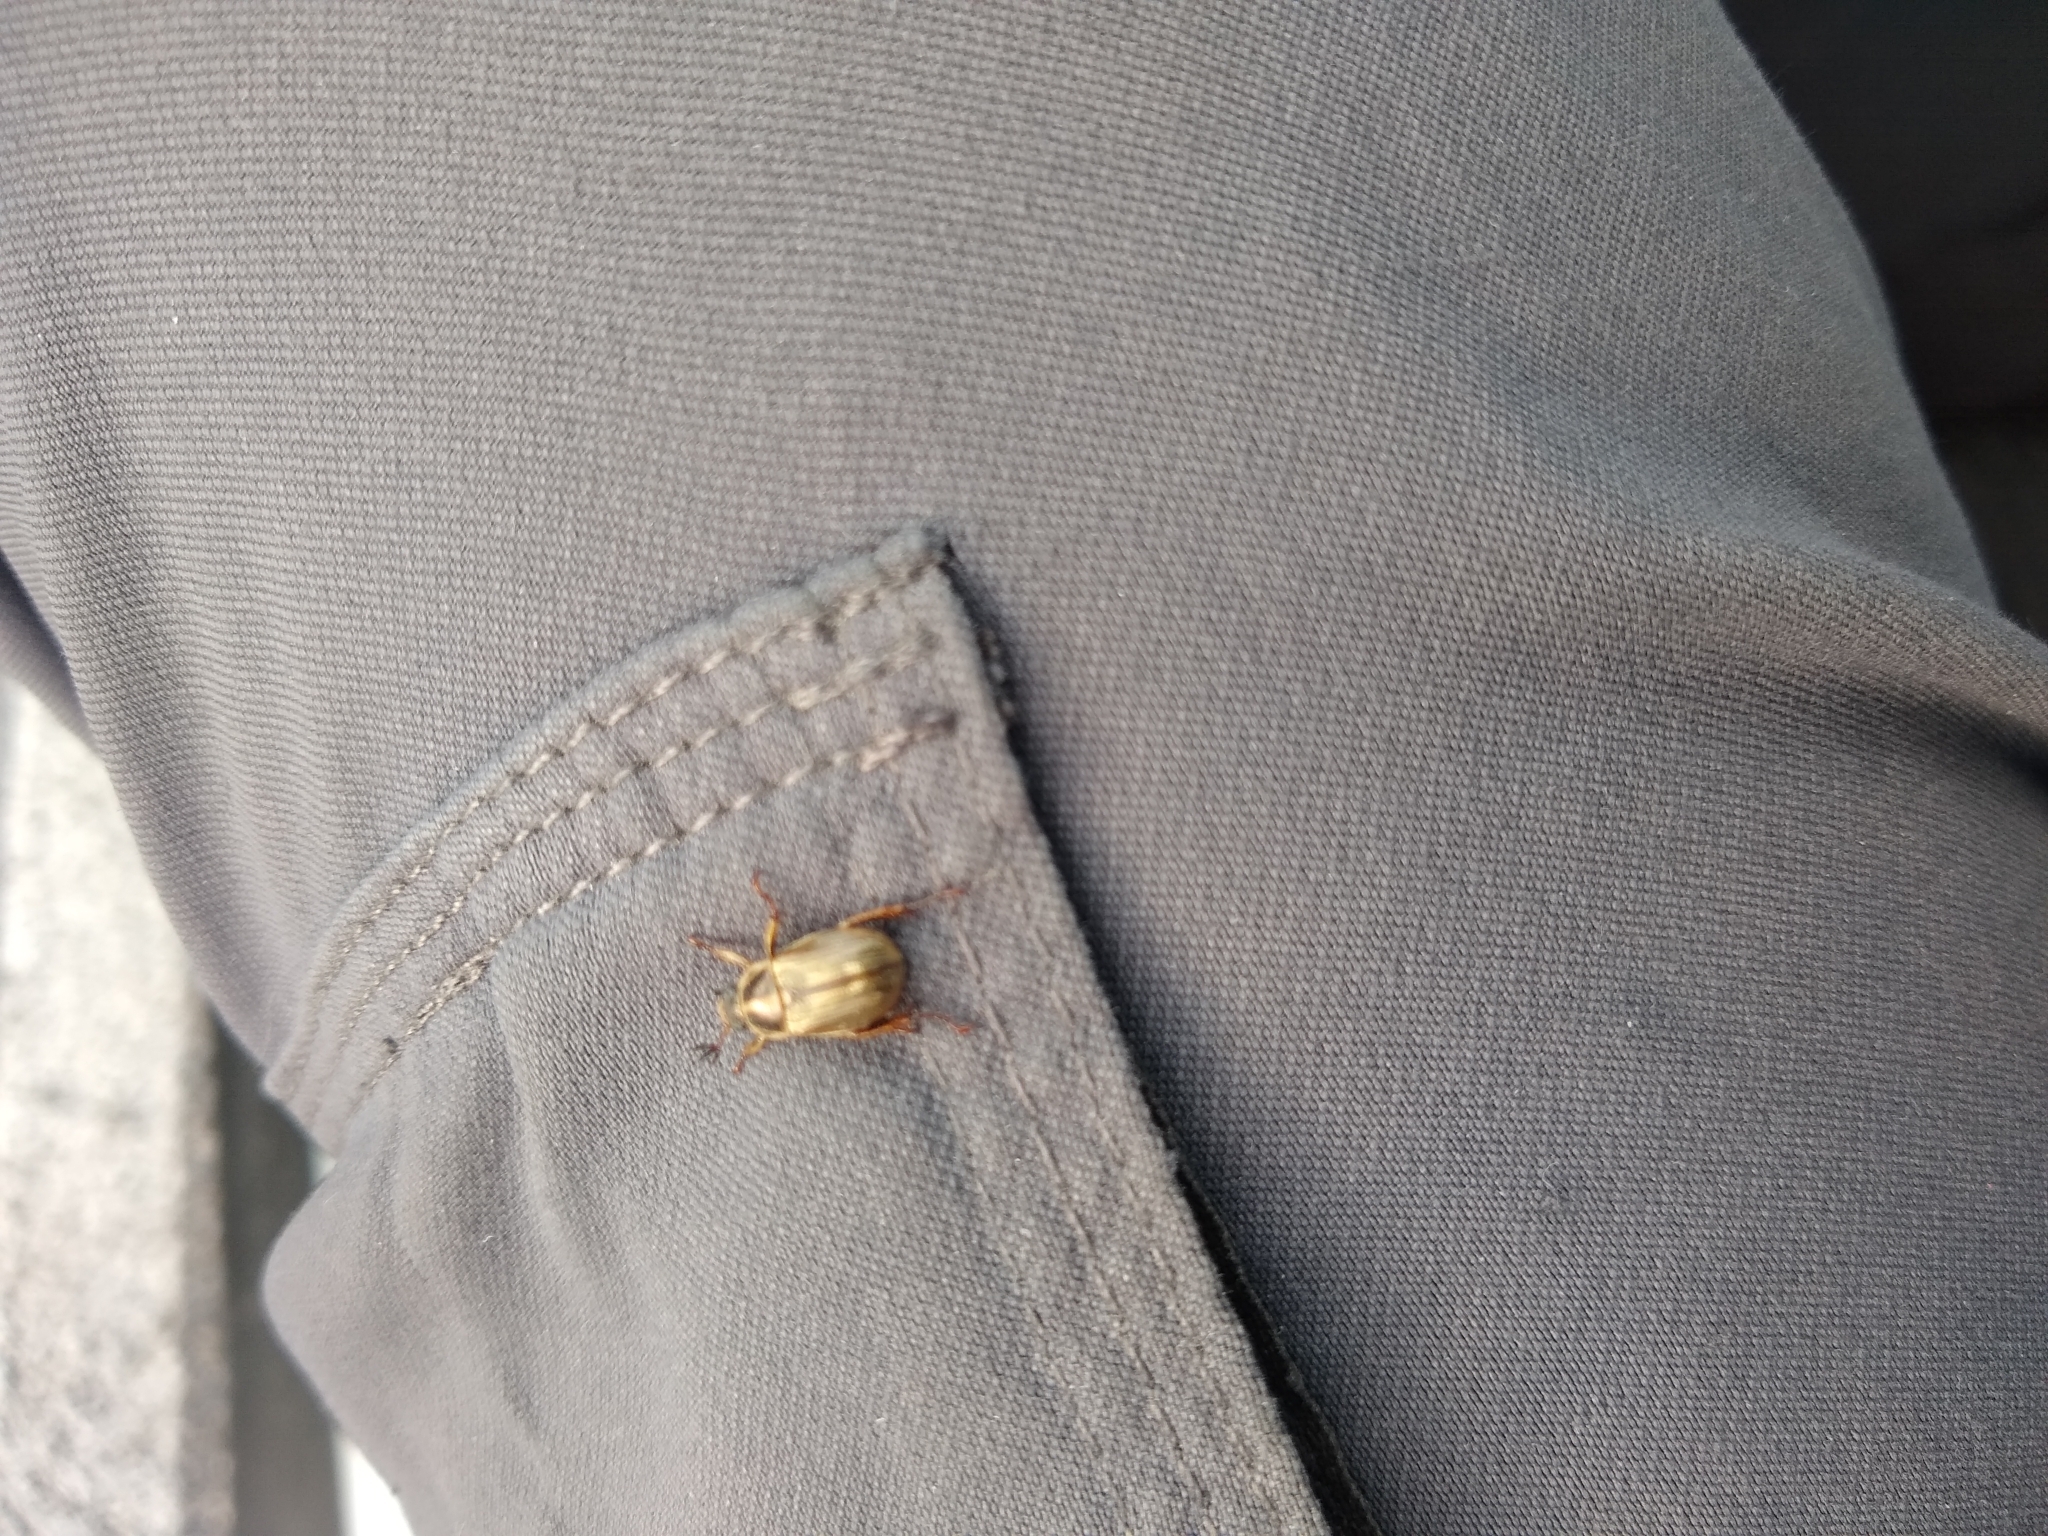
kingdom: Animalia
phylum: Arthropoda
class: Insecta
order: Coleoptera
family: Scarabaeidae
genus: Exomala
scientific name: Exomala orientalis
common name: Oriental beetle
